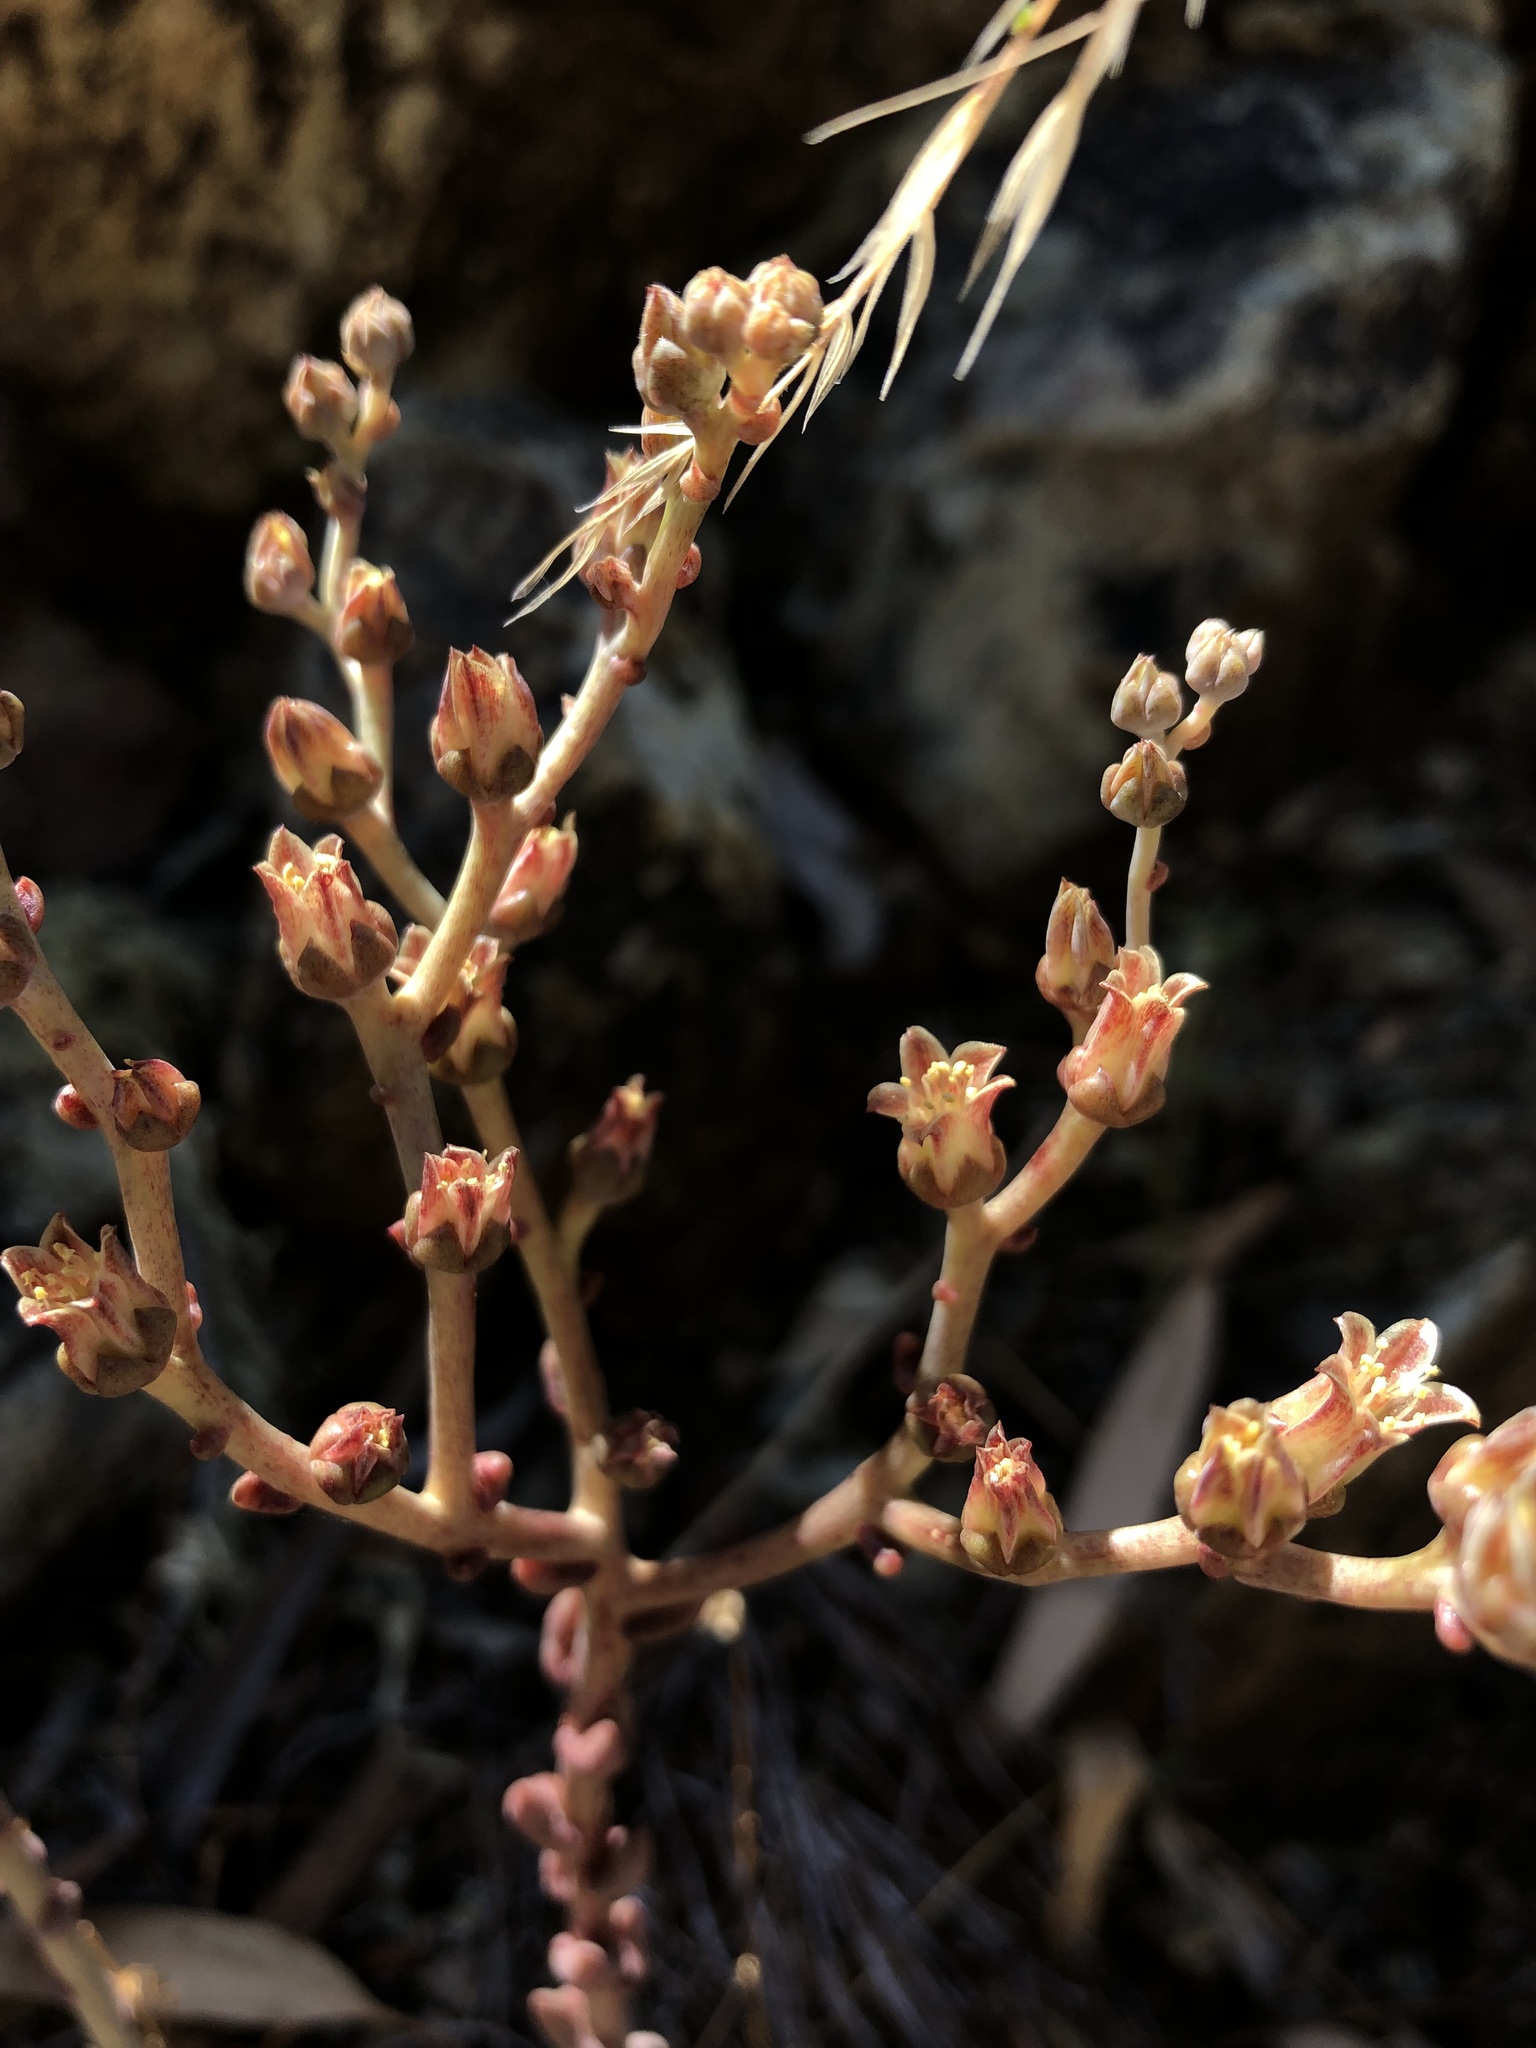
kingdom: Plantae
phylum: Tracheophyta
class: Magnoliopsida
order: Saxifragales
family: Crassulaceae
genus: Dudleya
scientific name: Dudleya abramsii
